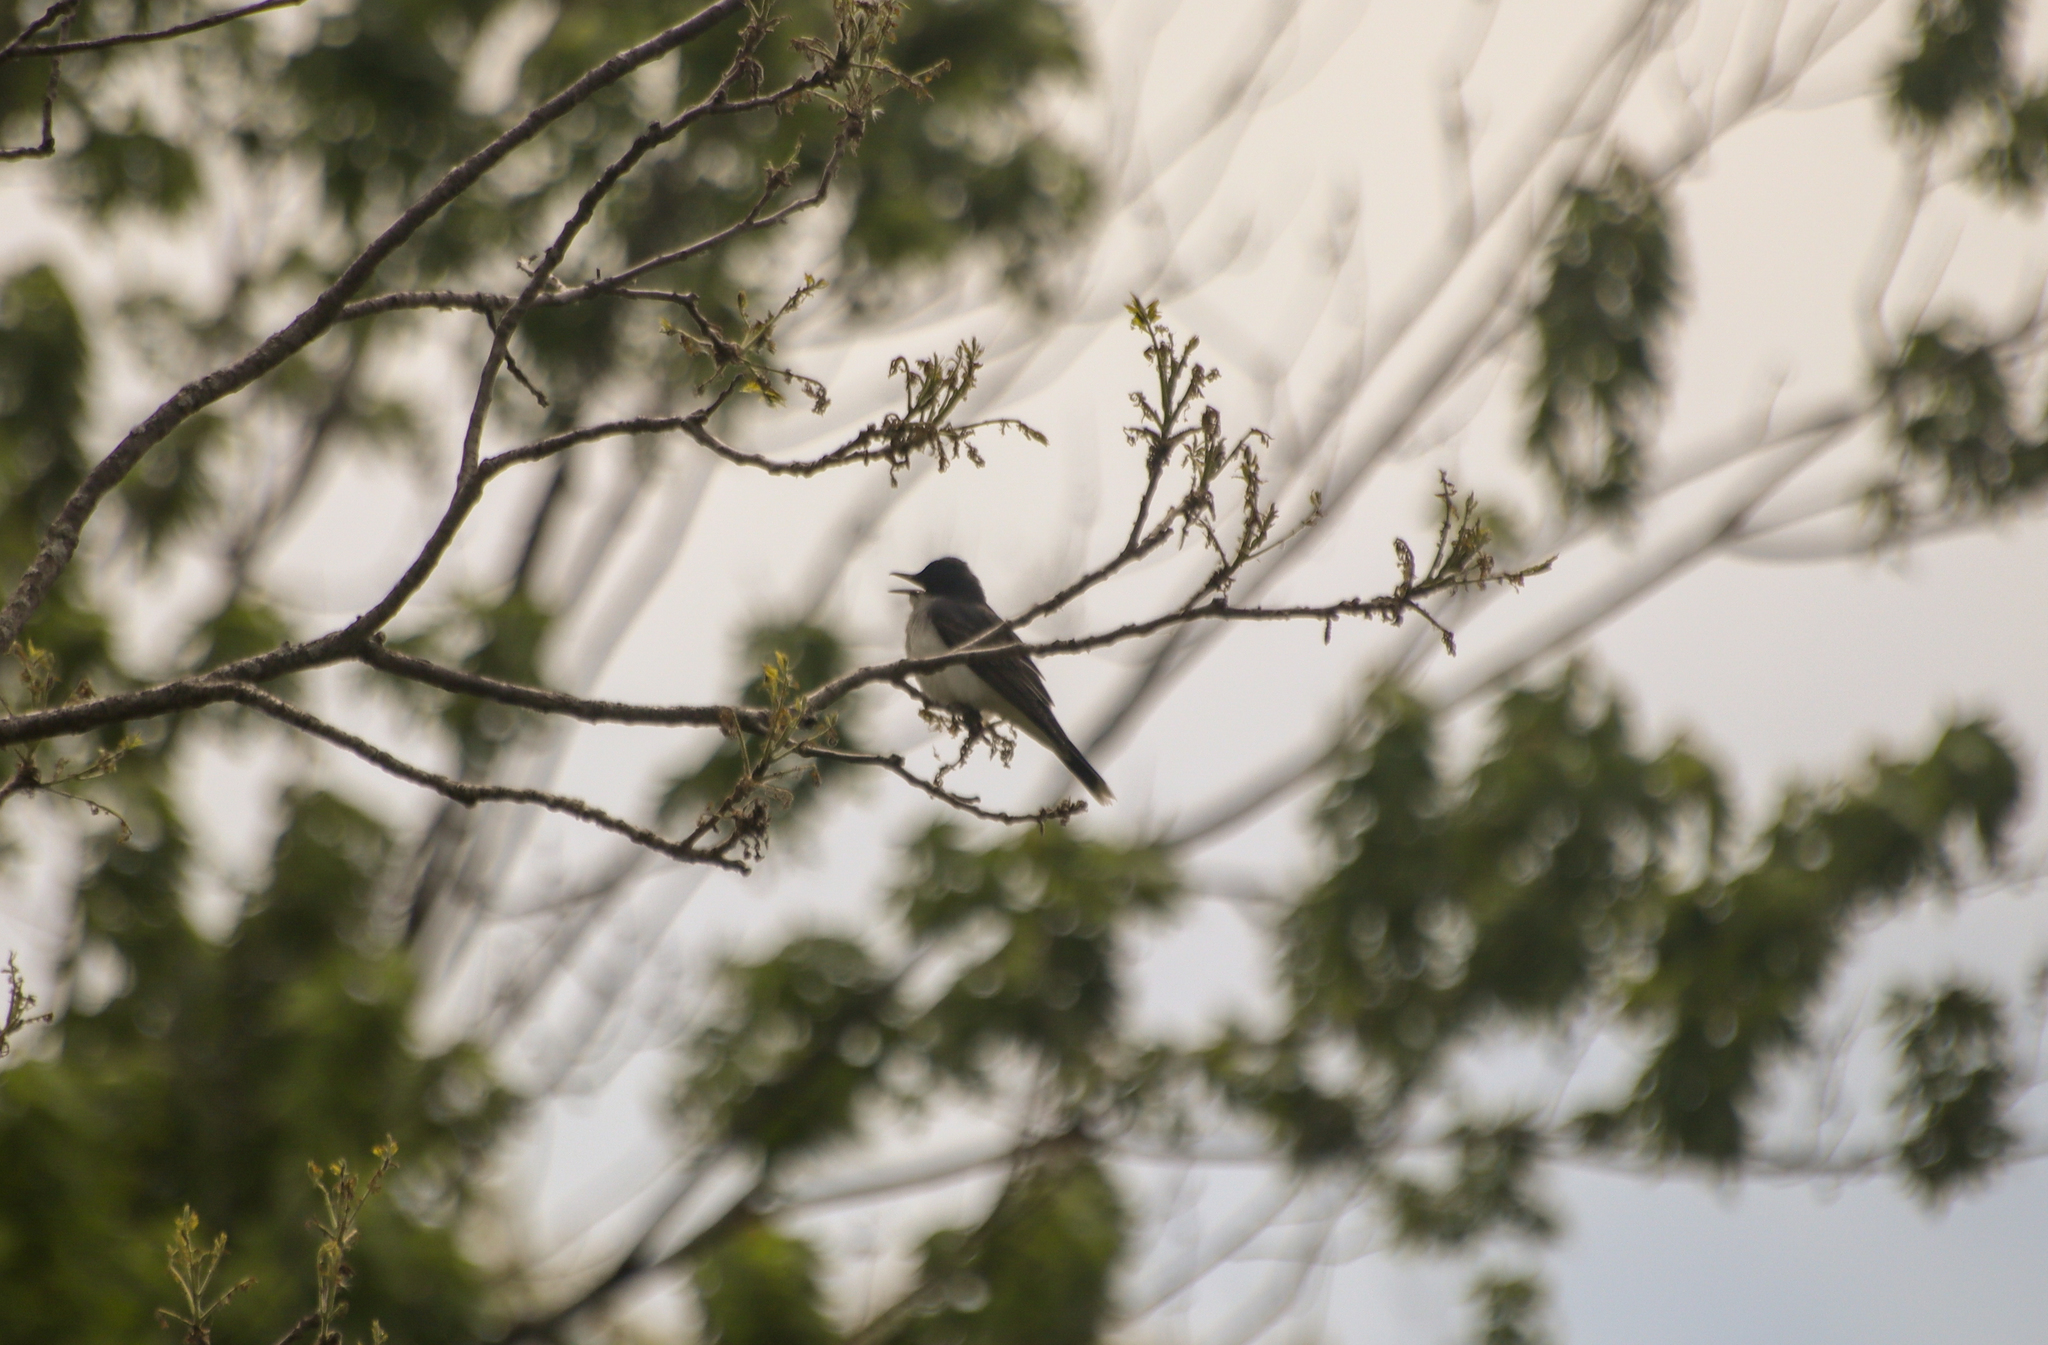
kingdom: Animalia
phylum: Chordata
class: Aves
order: Passeriformes
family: Tyrannidae
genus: Tyrannus
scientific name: Tyrannus tyrannus
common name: Eastern kingbird
